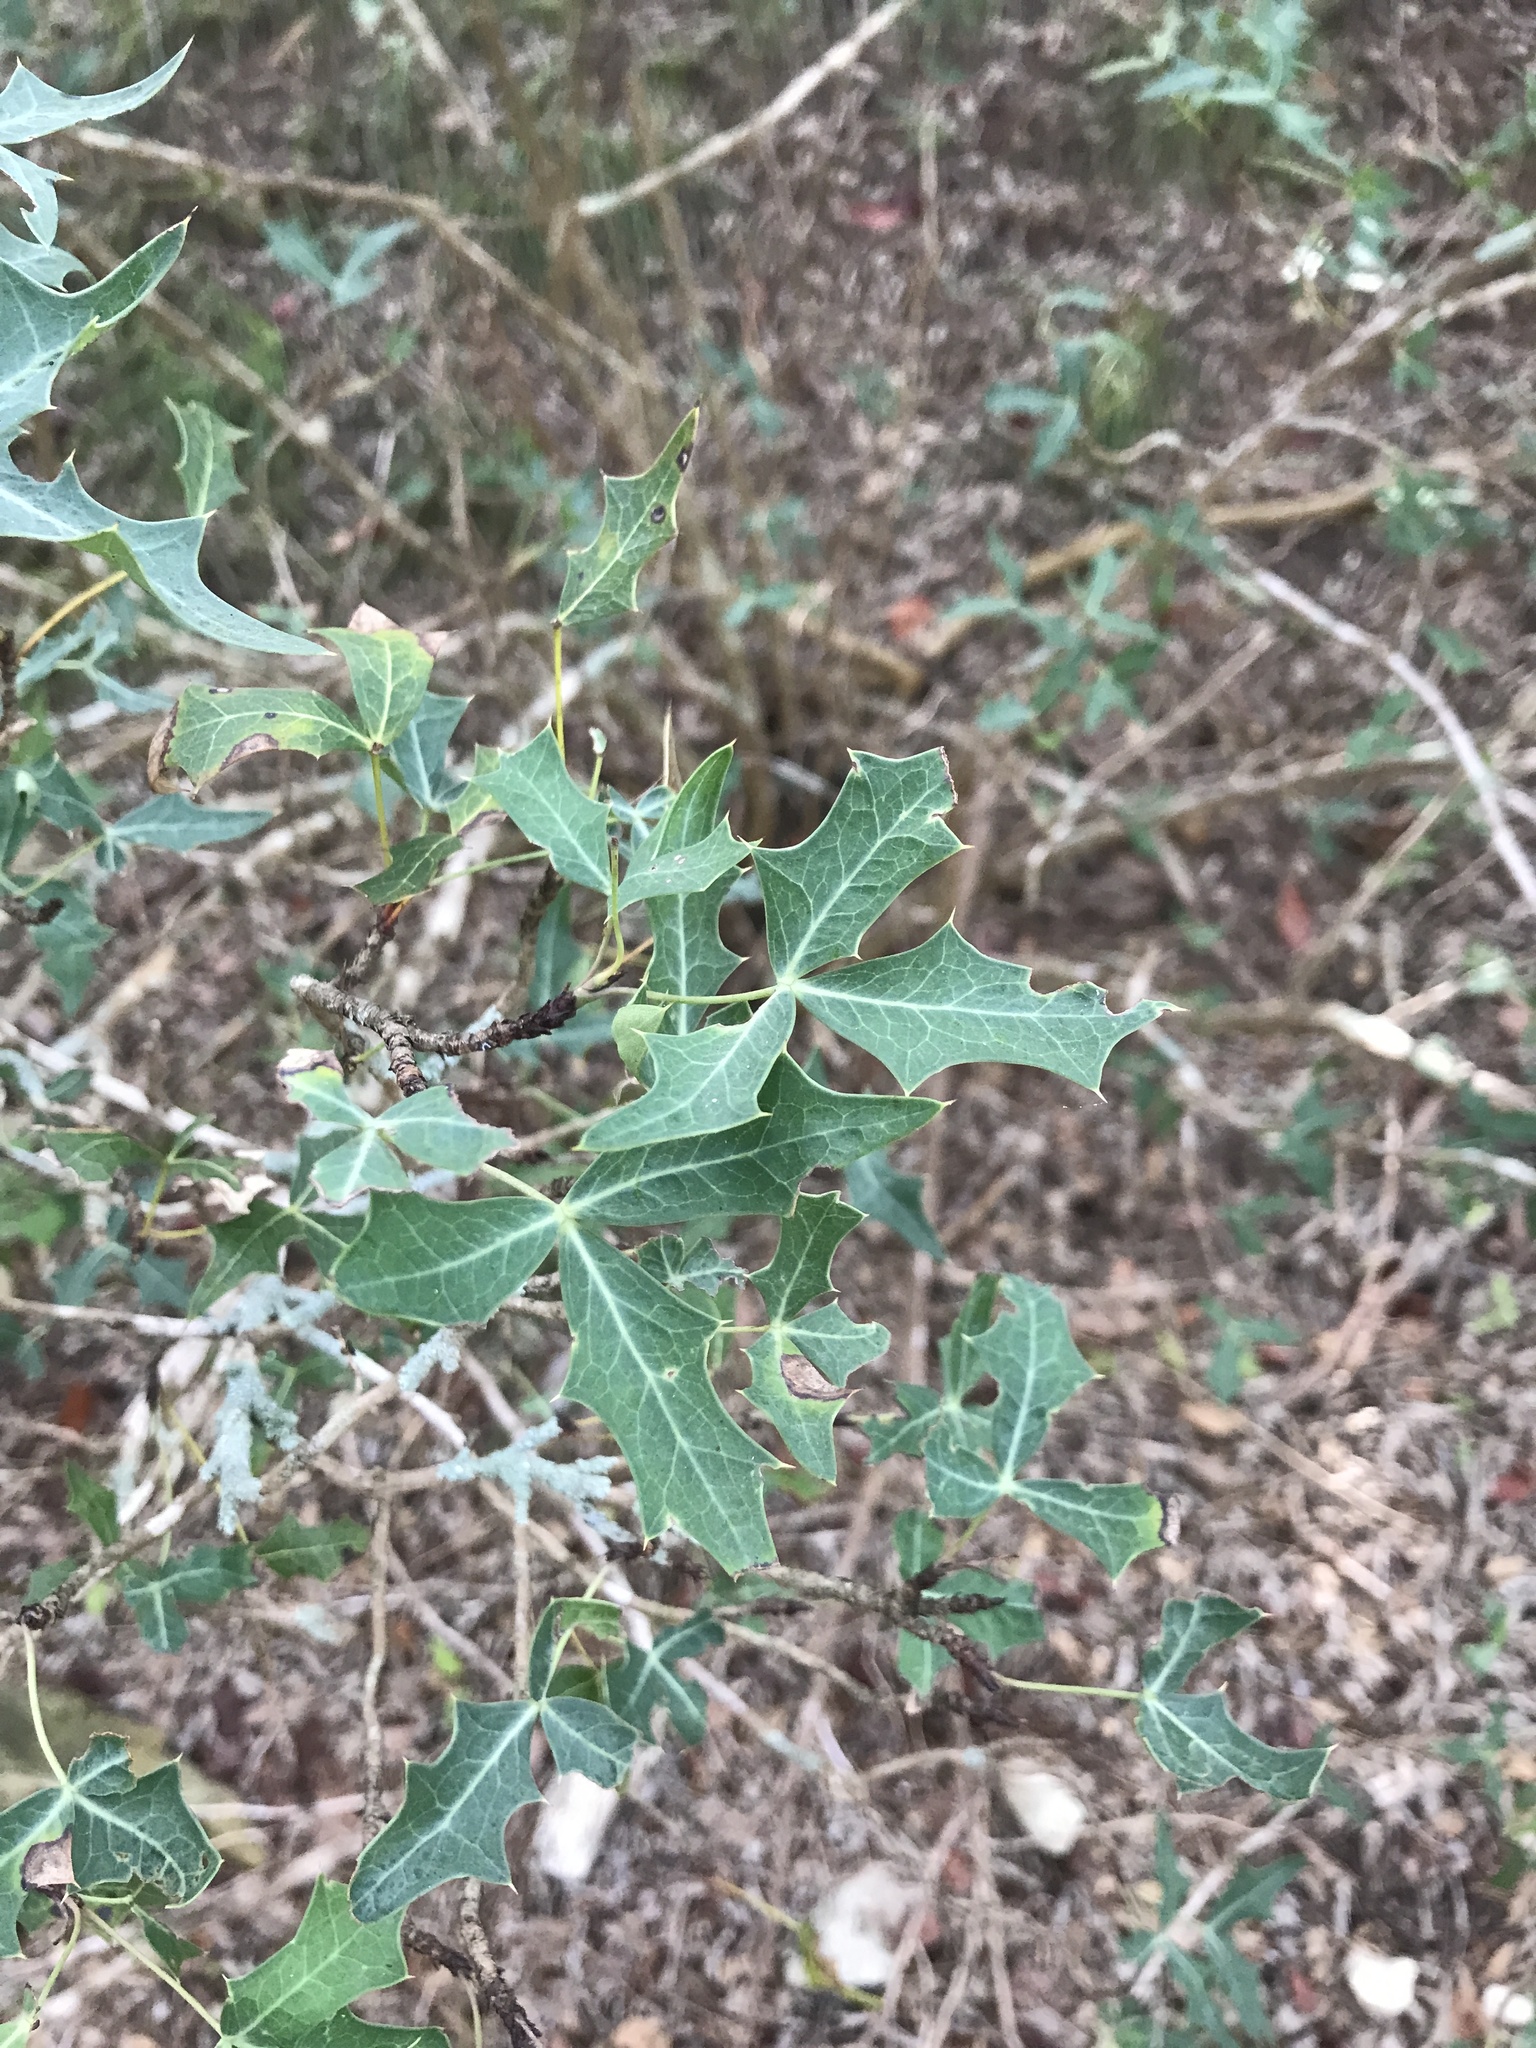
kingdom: Plantae
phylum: Tracheophyta
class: Magnoliopsida
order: Ranunculales
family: Berberidaceae
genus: Alloberberis
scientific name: Alloberberis trifoliolata
